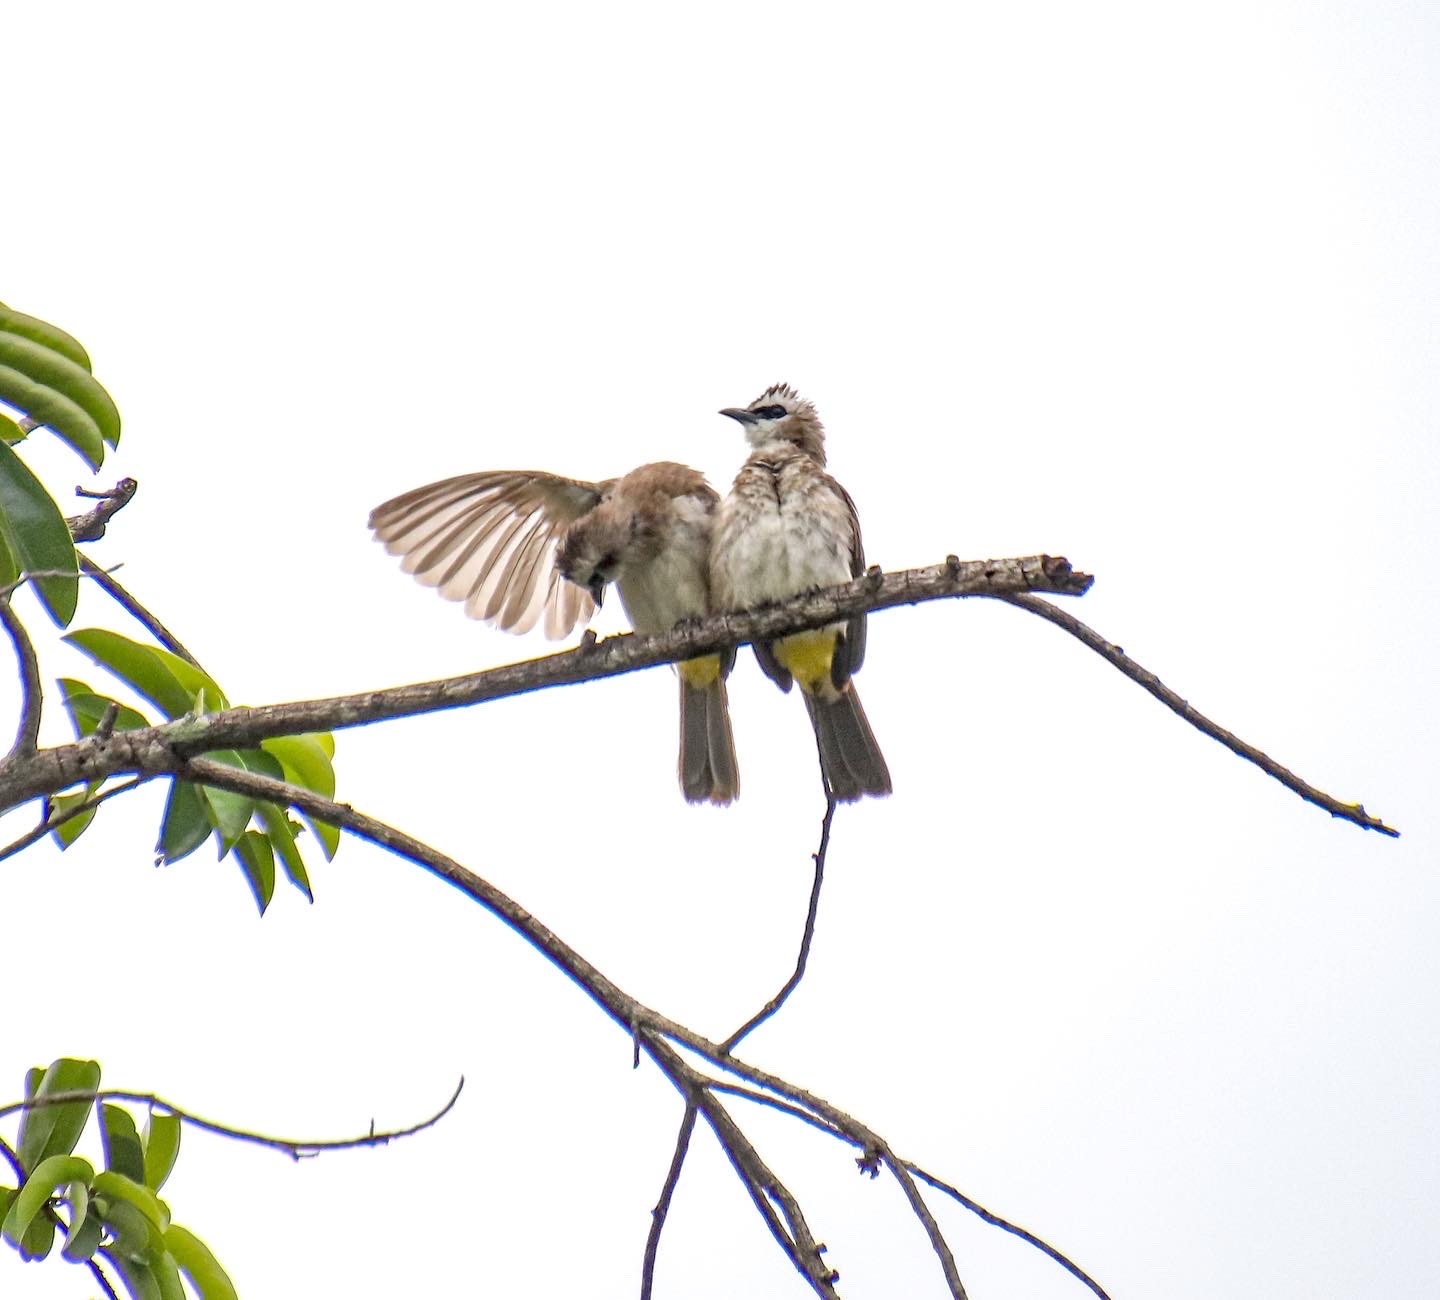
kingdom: Animalia
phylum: Chordata
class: Aves
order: Passeriformes
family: Pycnonotidae
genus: Pycnonotus
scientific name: Pycnonotus goiavier
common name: Yellow-vented bulbul
